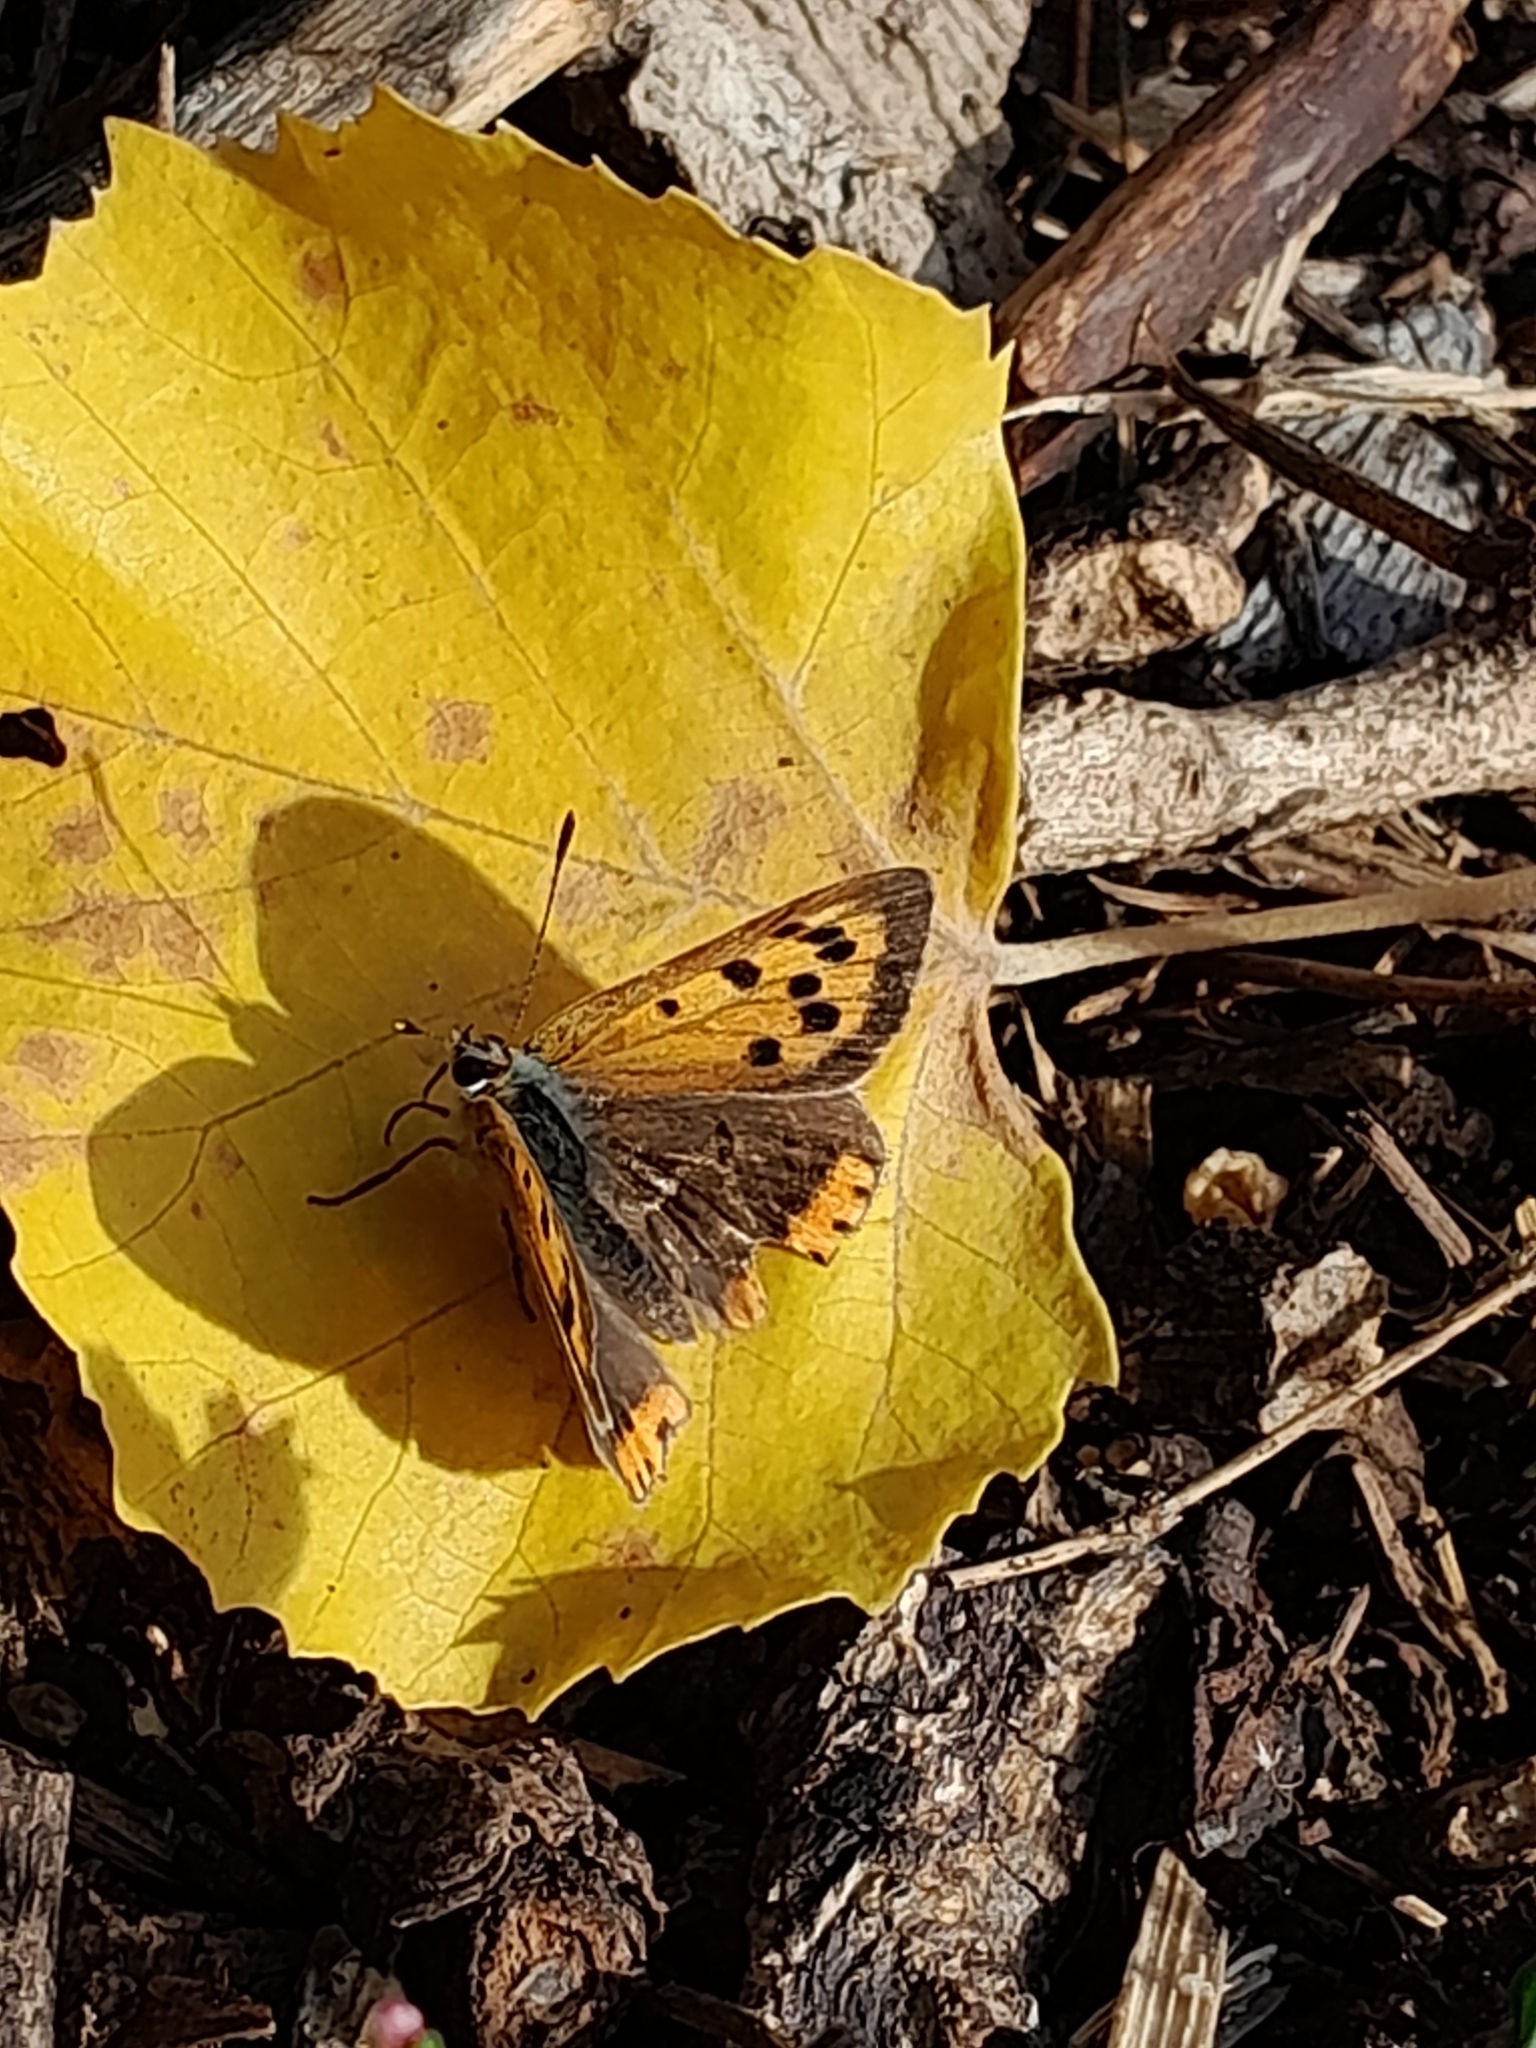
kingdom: Animalia
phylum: Arthropoda
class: Insecta
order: Lepidoptera
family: Lycaenidae
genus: Lycaena
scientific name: Lycaena phlaeas
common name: Small copper
